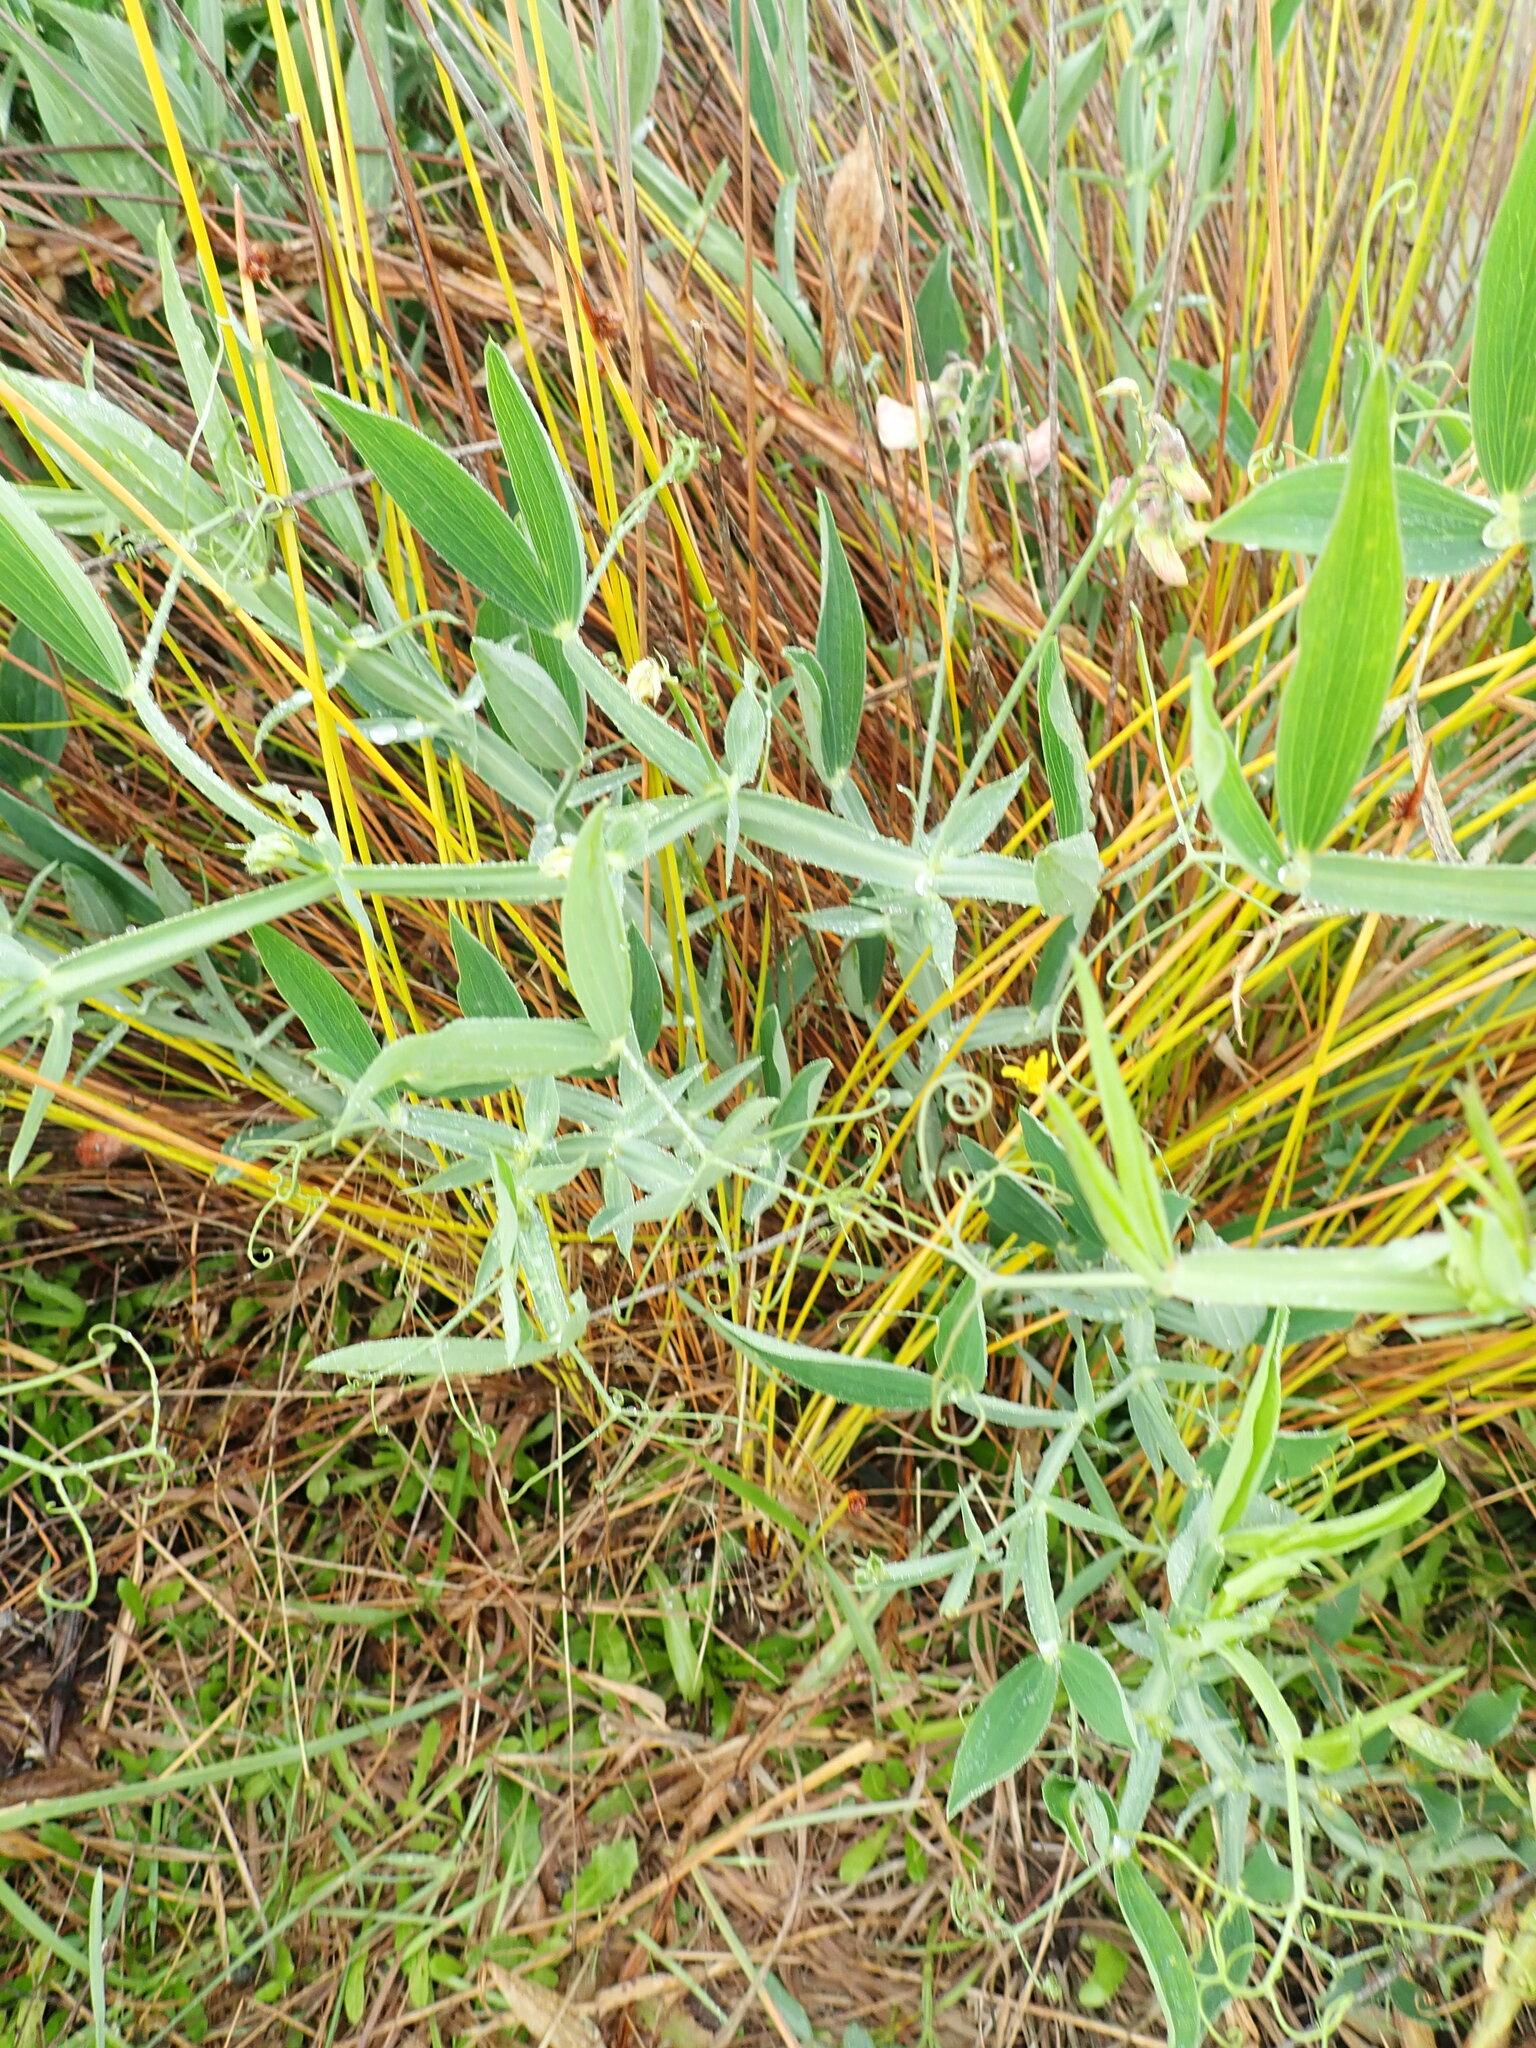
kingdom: Plantae
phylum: Tracheophyta
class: Magnoliopsida
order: Fabales
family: Fabaceae
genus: Lathyrus
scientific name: Lathyrus latifolius
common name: Perennial pea
